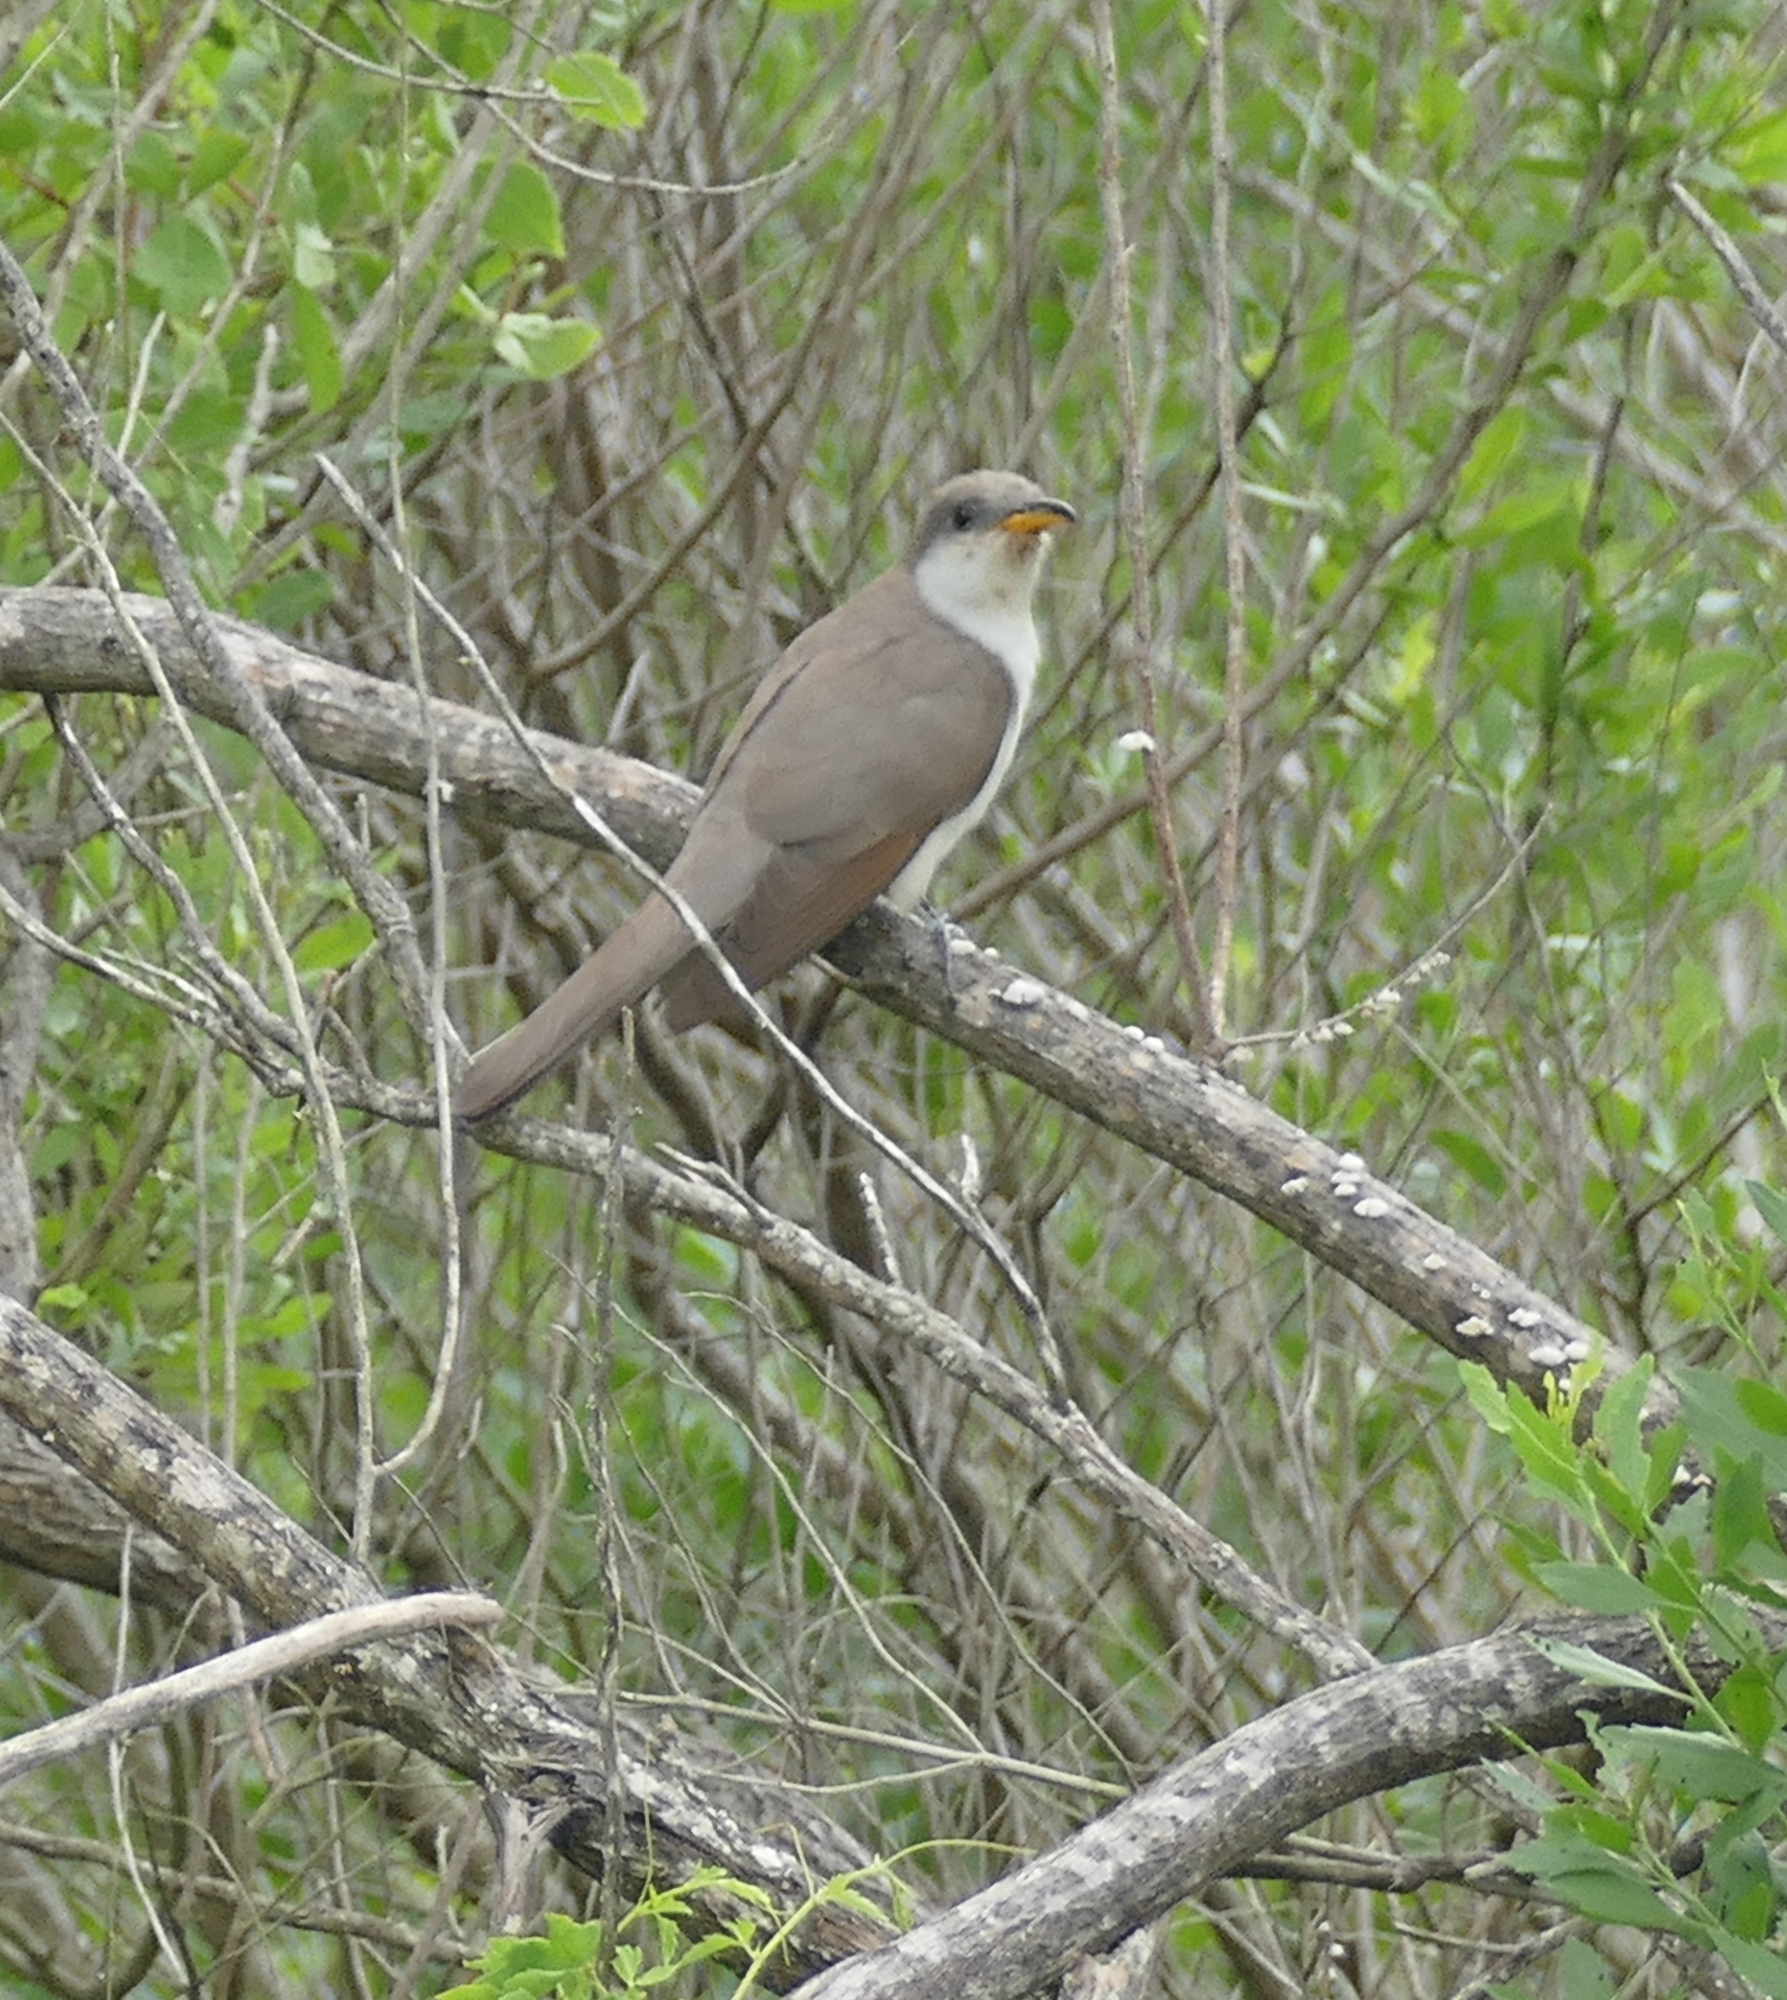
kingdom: Animalia
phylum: Chordata
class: Aves
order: Cuculiformes
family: Cuculidae
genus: Coccyzus
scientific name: Coccyzus americanus
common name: Yellow-billed cuckoo
